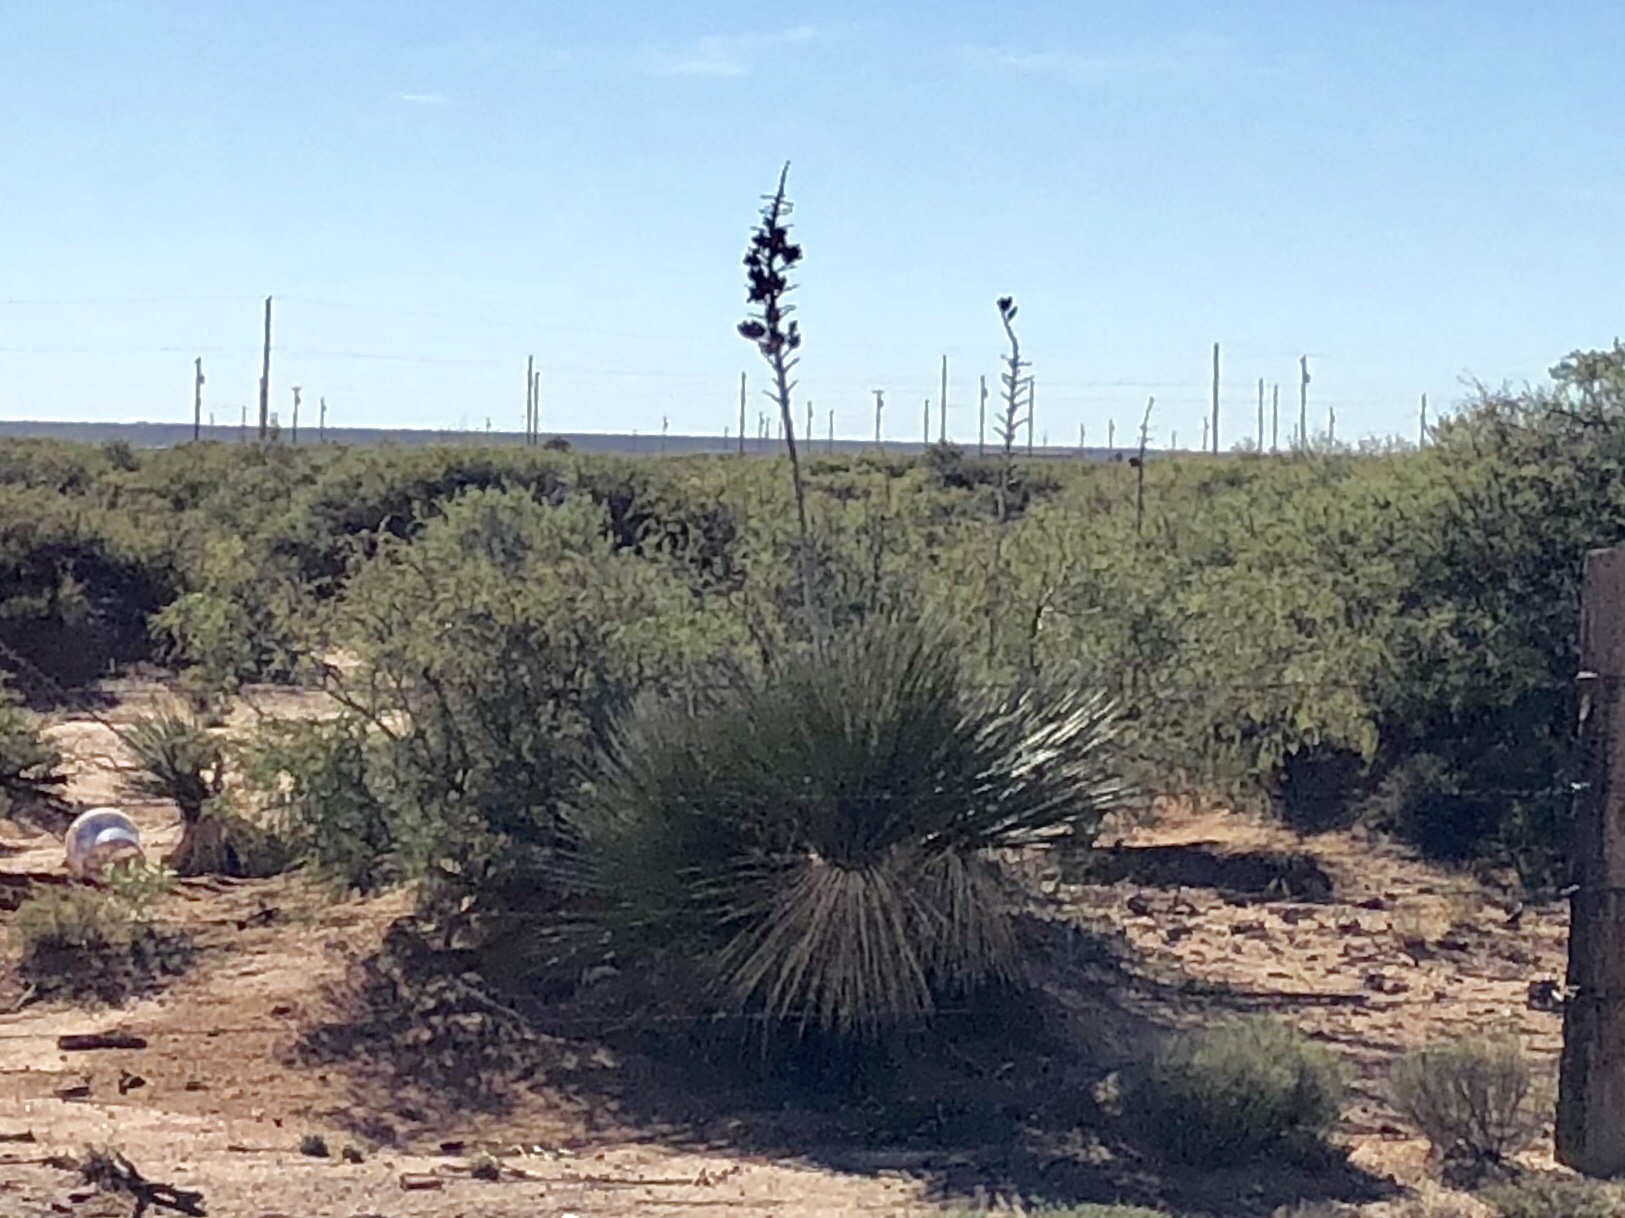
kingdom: Plantae
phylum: Tracheophyta
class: Liliopsida
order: Asparagales
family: Asparagaceae
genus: Yucca
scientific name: Yucca elata
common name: Palmella
